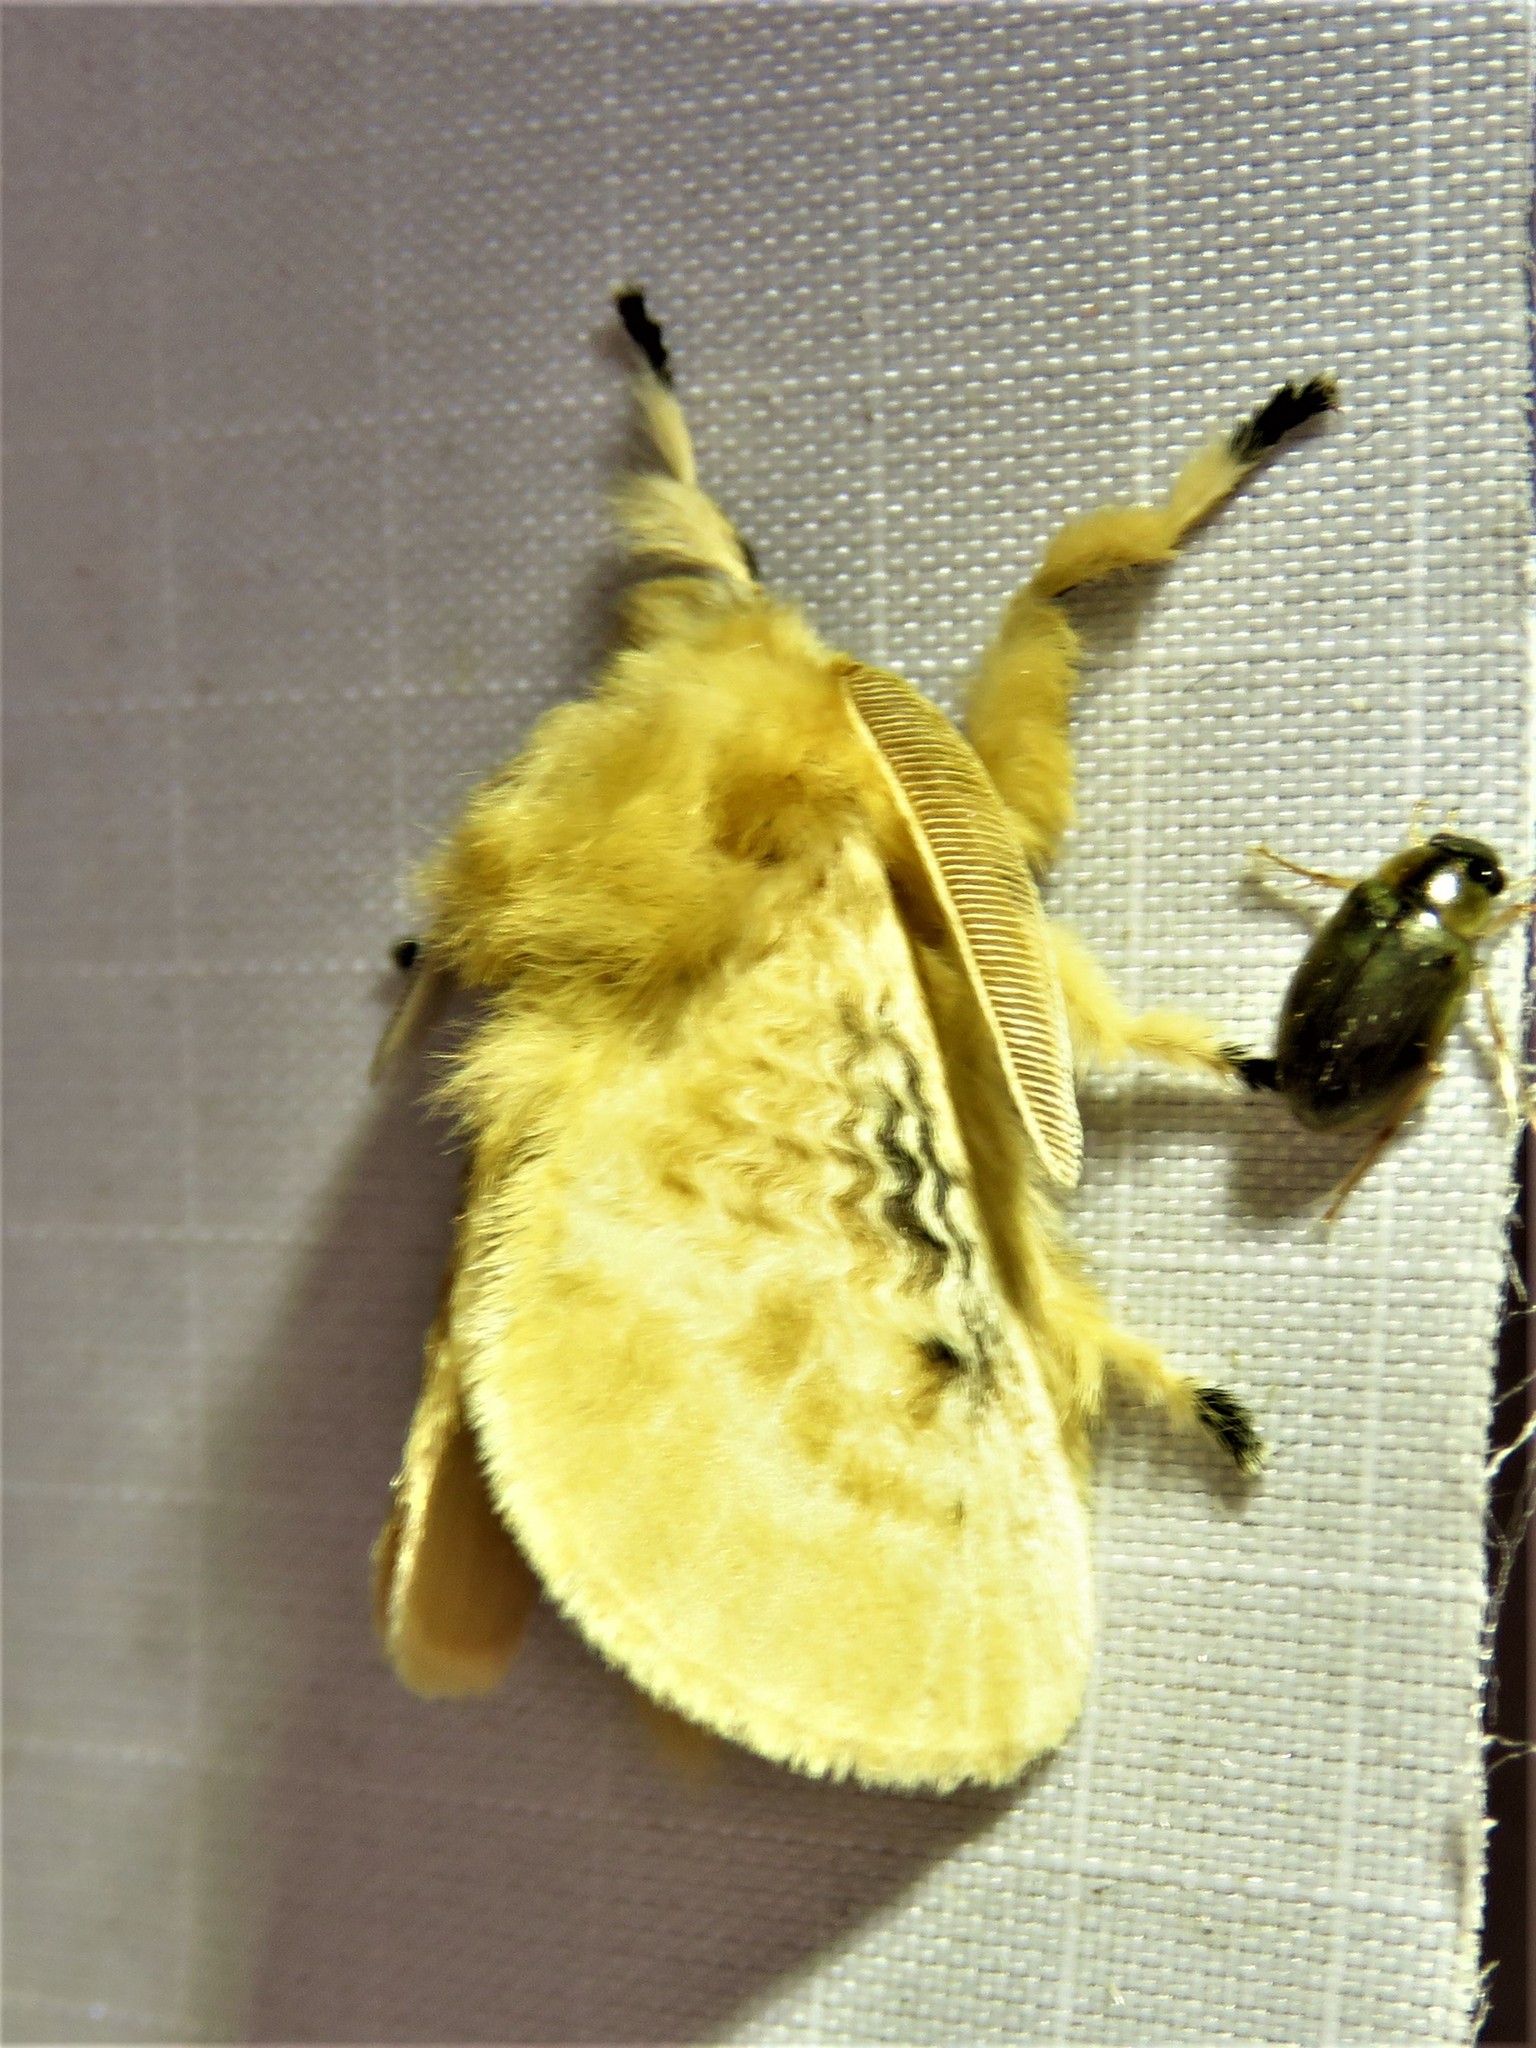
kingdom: Animalia
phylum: Arthropoda
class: Insecta
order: Lepidoptera
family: Megalopygidae
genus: Megalopyge
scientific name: Megalopyge crispata
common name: Black-waved flannel moth
